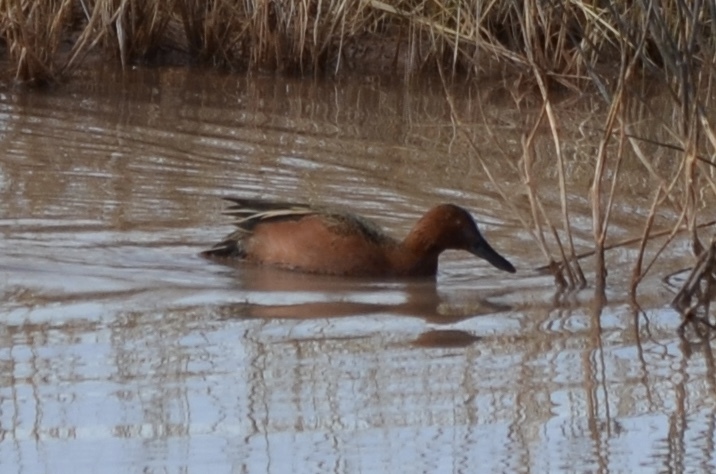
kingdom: Animalia
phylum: Chordata
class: Aves
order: Anseriformes
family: Anatidae
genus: Spatula
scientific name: Spatula cyanoptera
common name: Cinnamon teal
